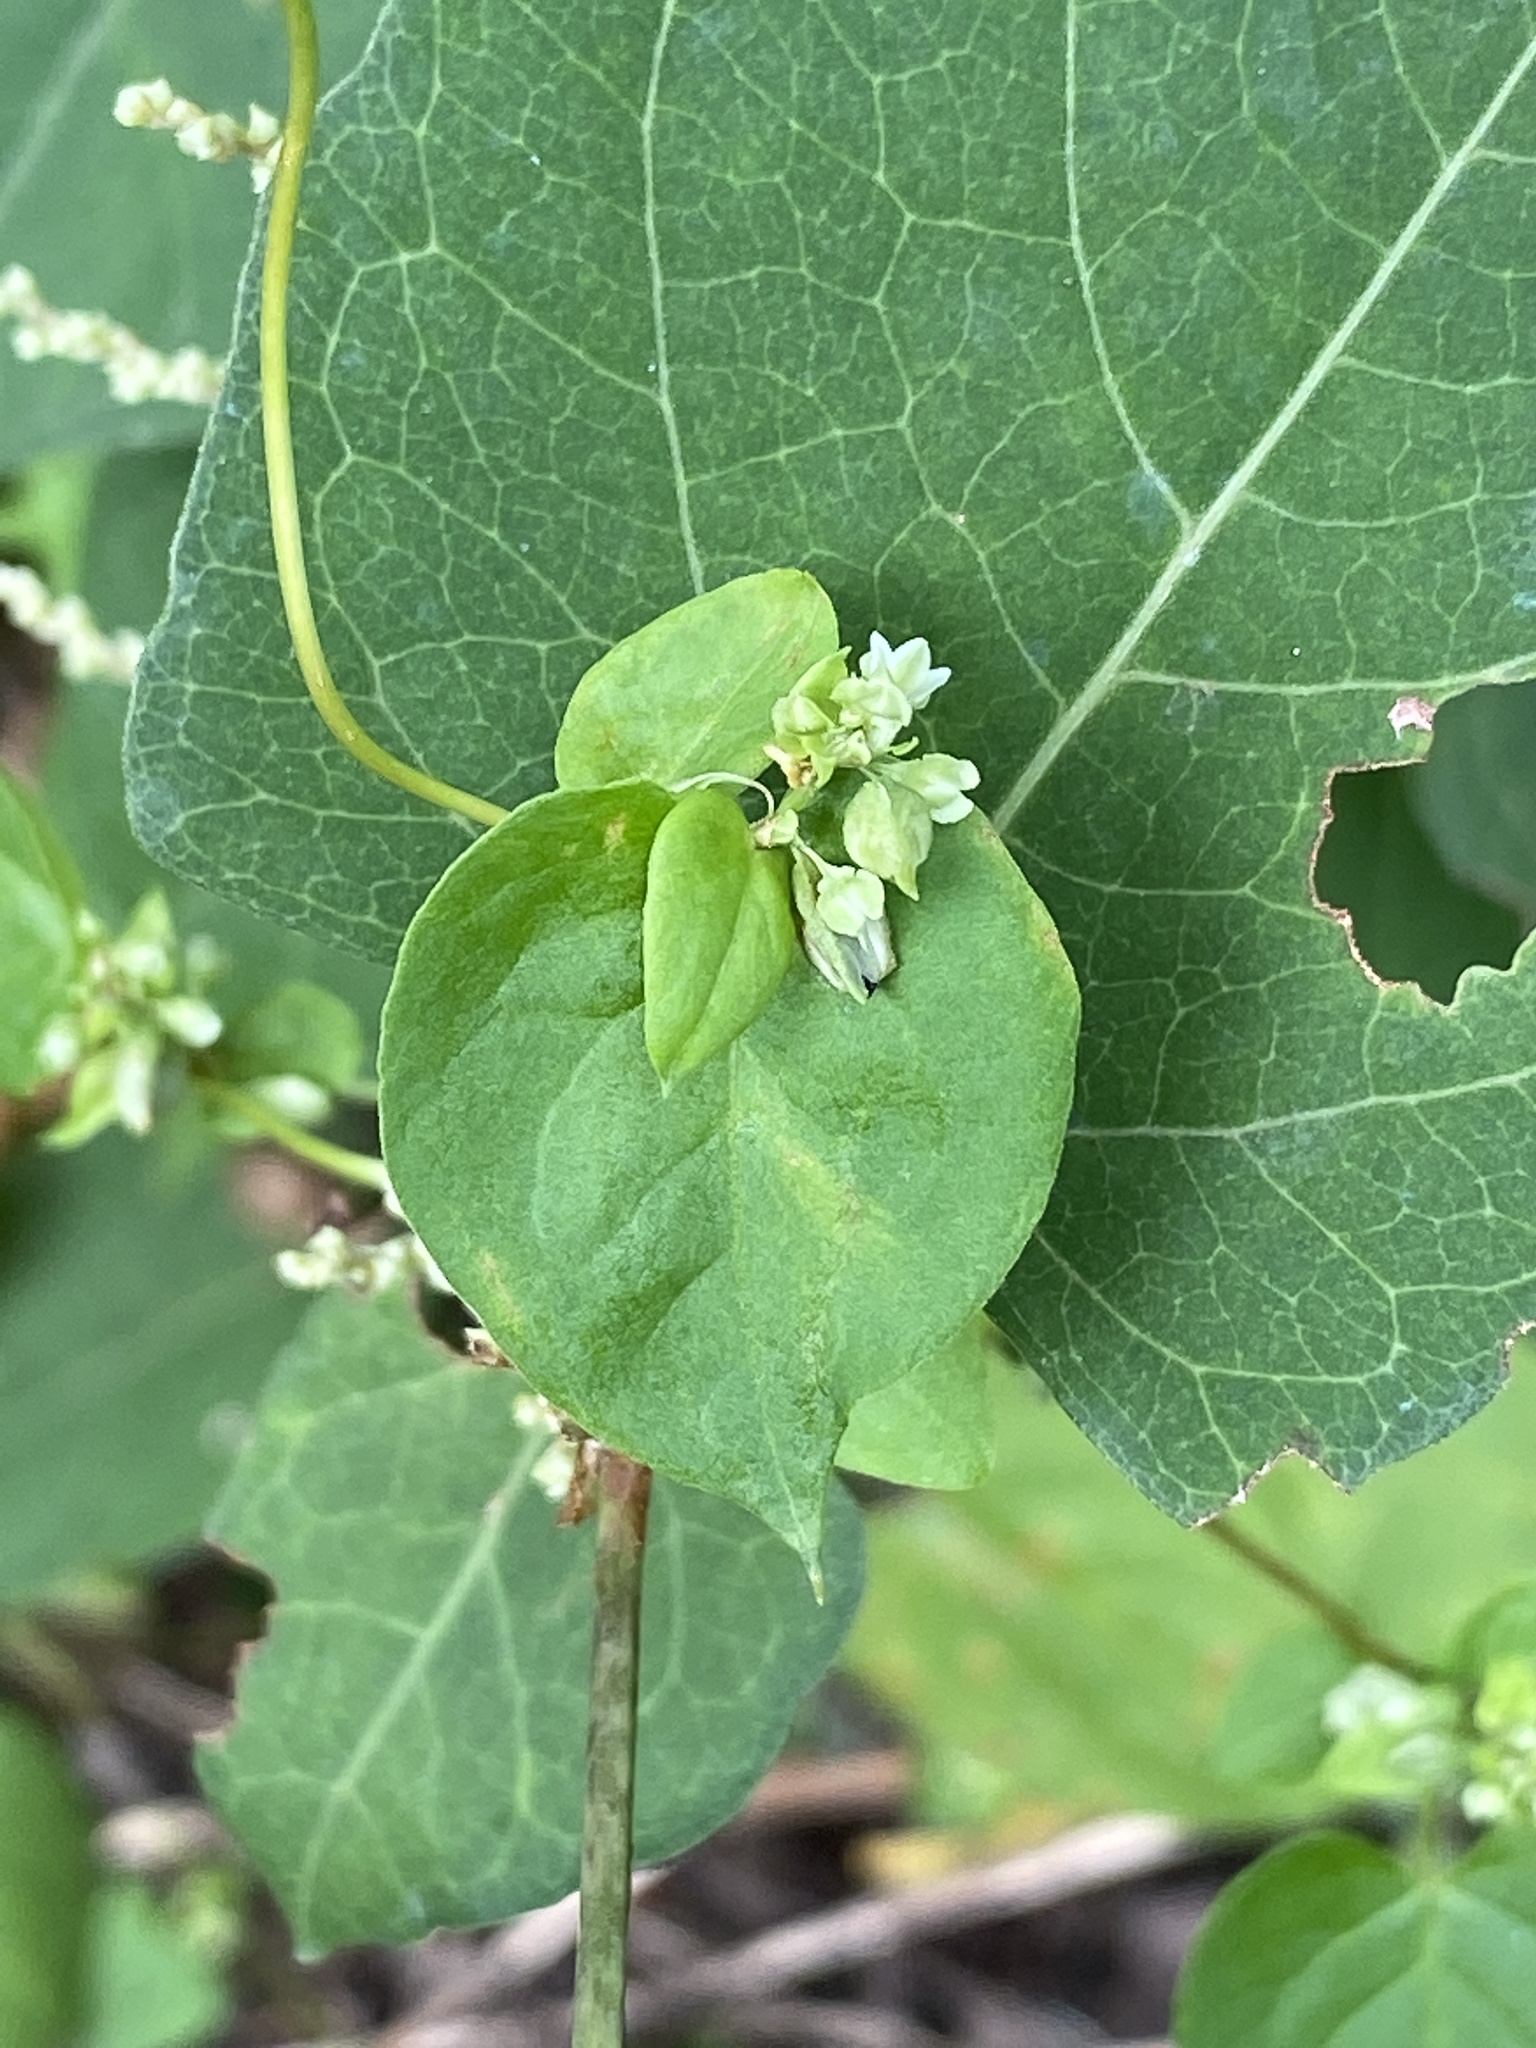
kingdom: Plantae
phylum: Tracheophyta
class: Magnoliopsida
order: Caryophyllales
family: Polygonaceae
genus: Fallopia
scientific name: Fallopia scandens
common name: Climbing false buckwheat
